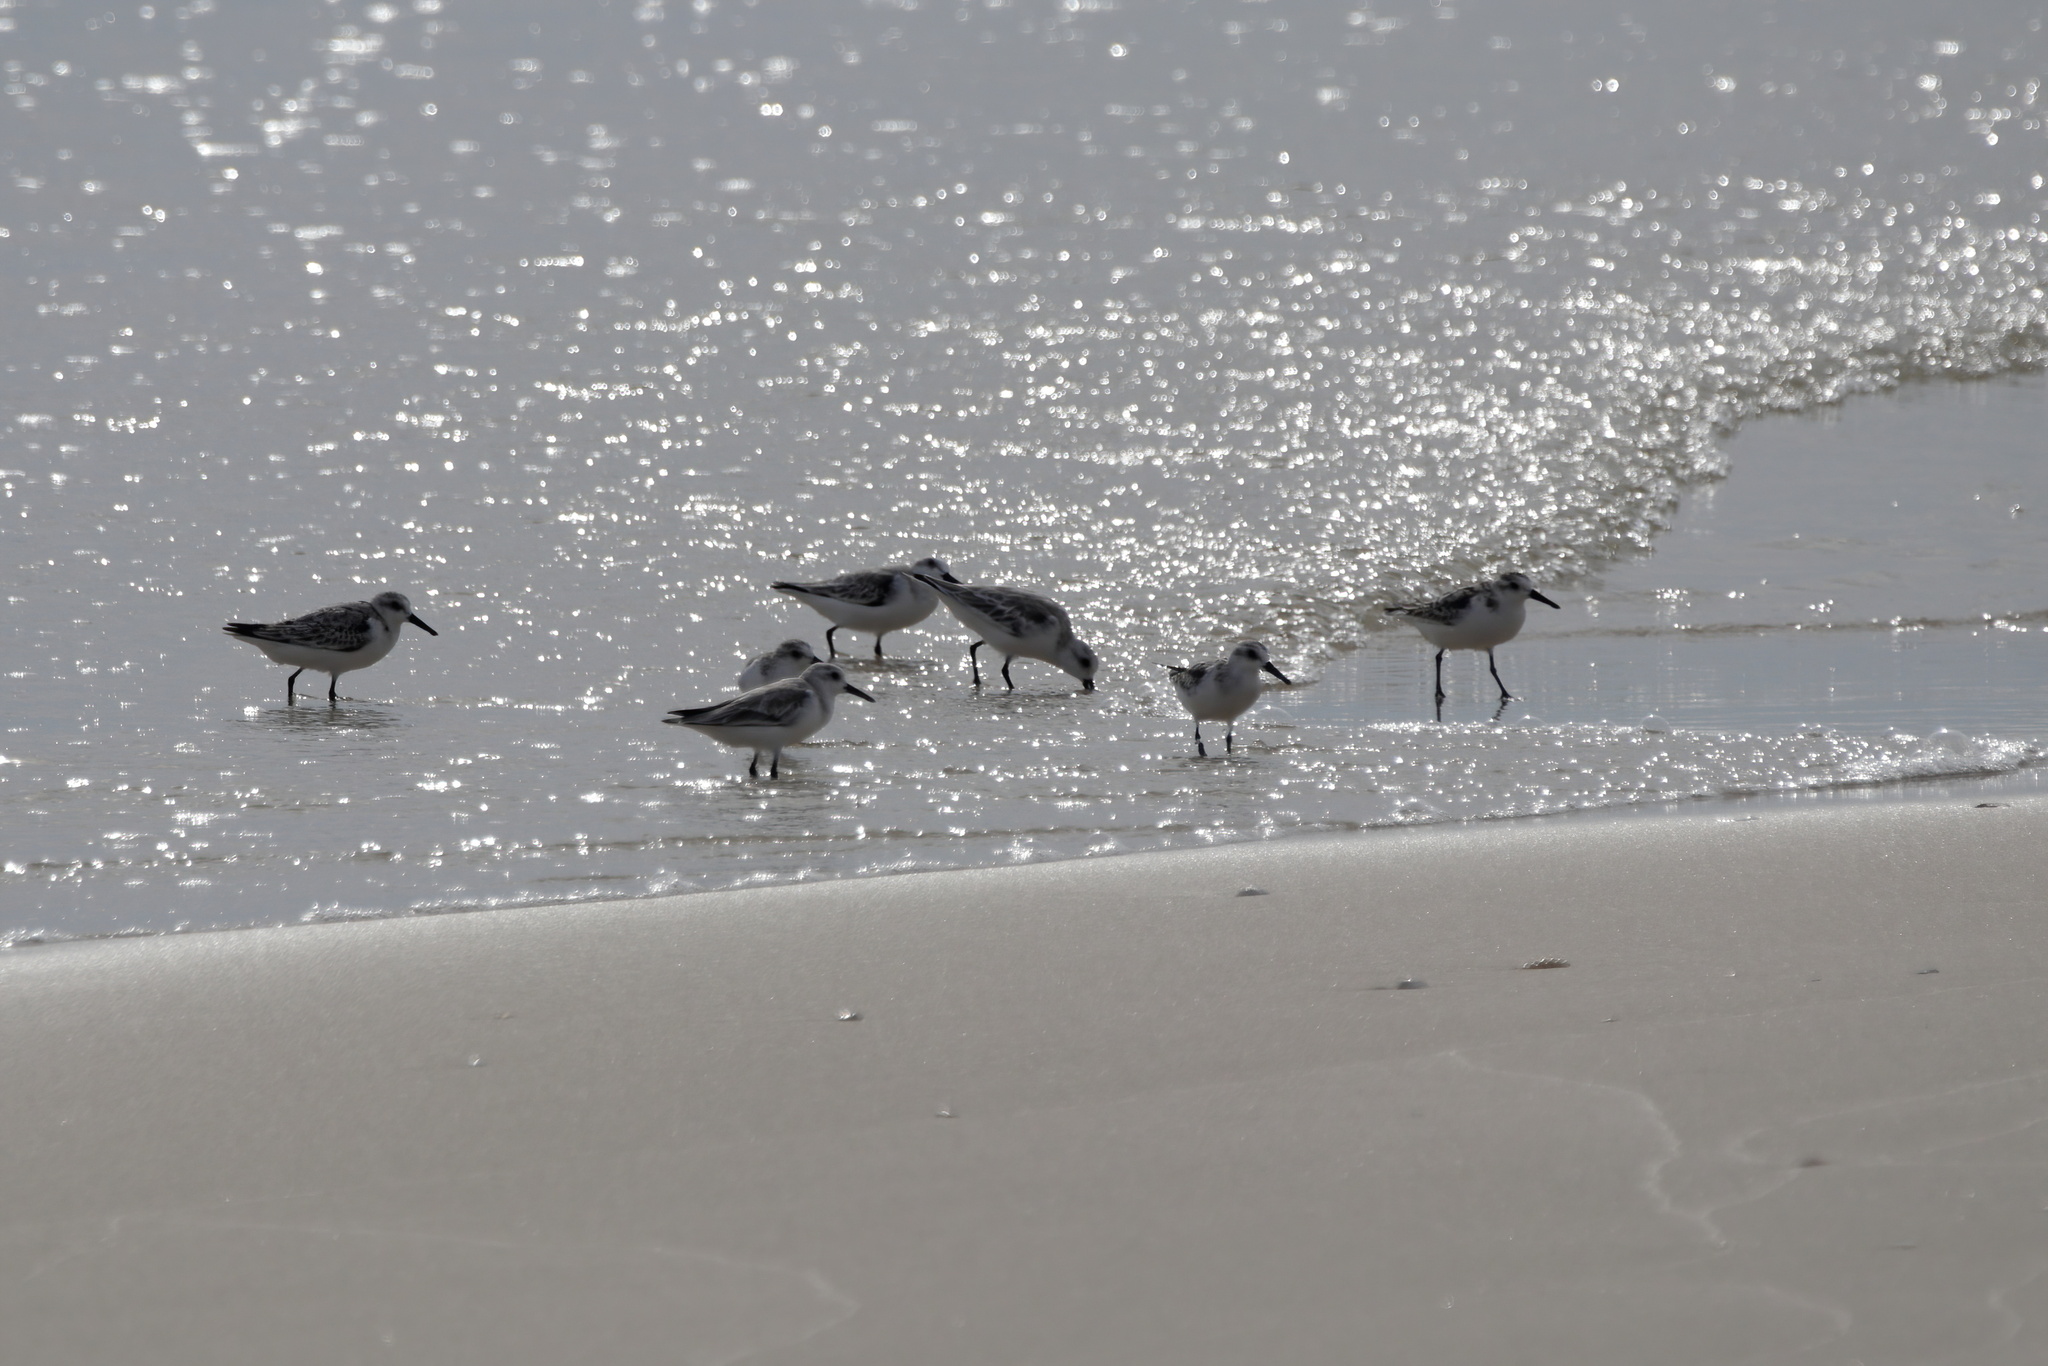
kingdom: Animalia
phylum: Chordata
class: Aves
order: Charadriiformes
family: Scolopacidae
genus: Calidris
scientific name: Calidris alba
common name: Sanderling
